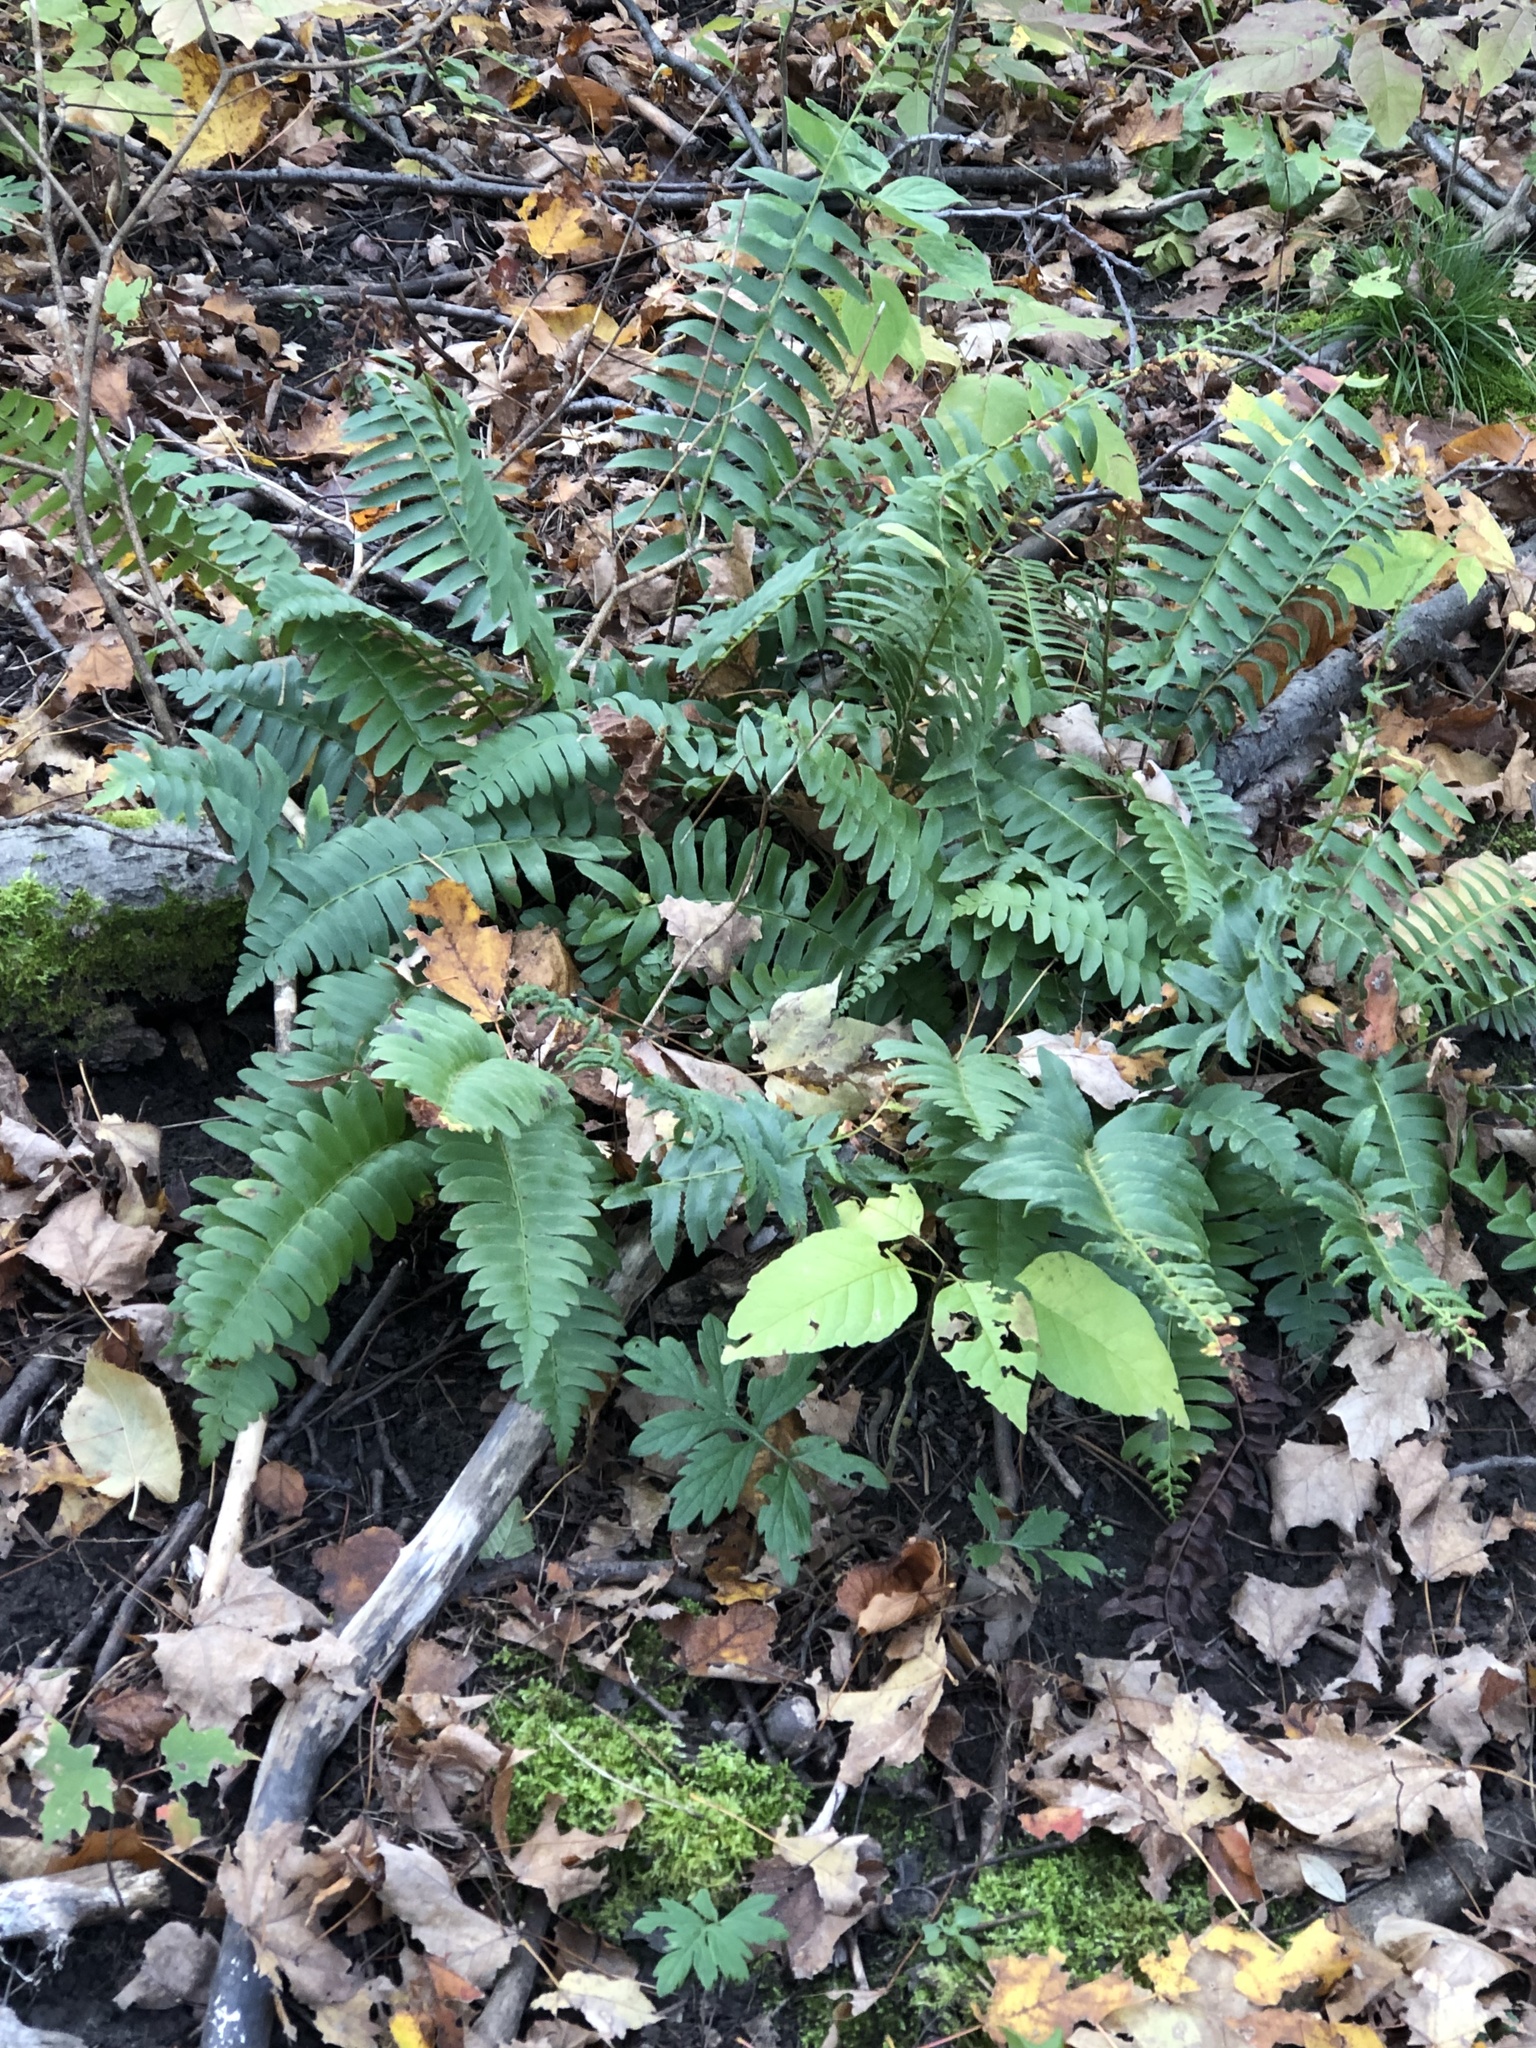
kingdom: Plantae
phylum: Tracheophyta
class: Polypodiopsida
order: Polypodiales
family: Dryopteridaceae
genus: Polystichum
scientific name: Polystichum acrostichoides
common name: Christmas fern
